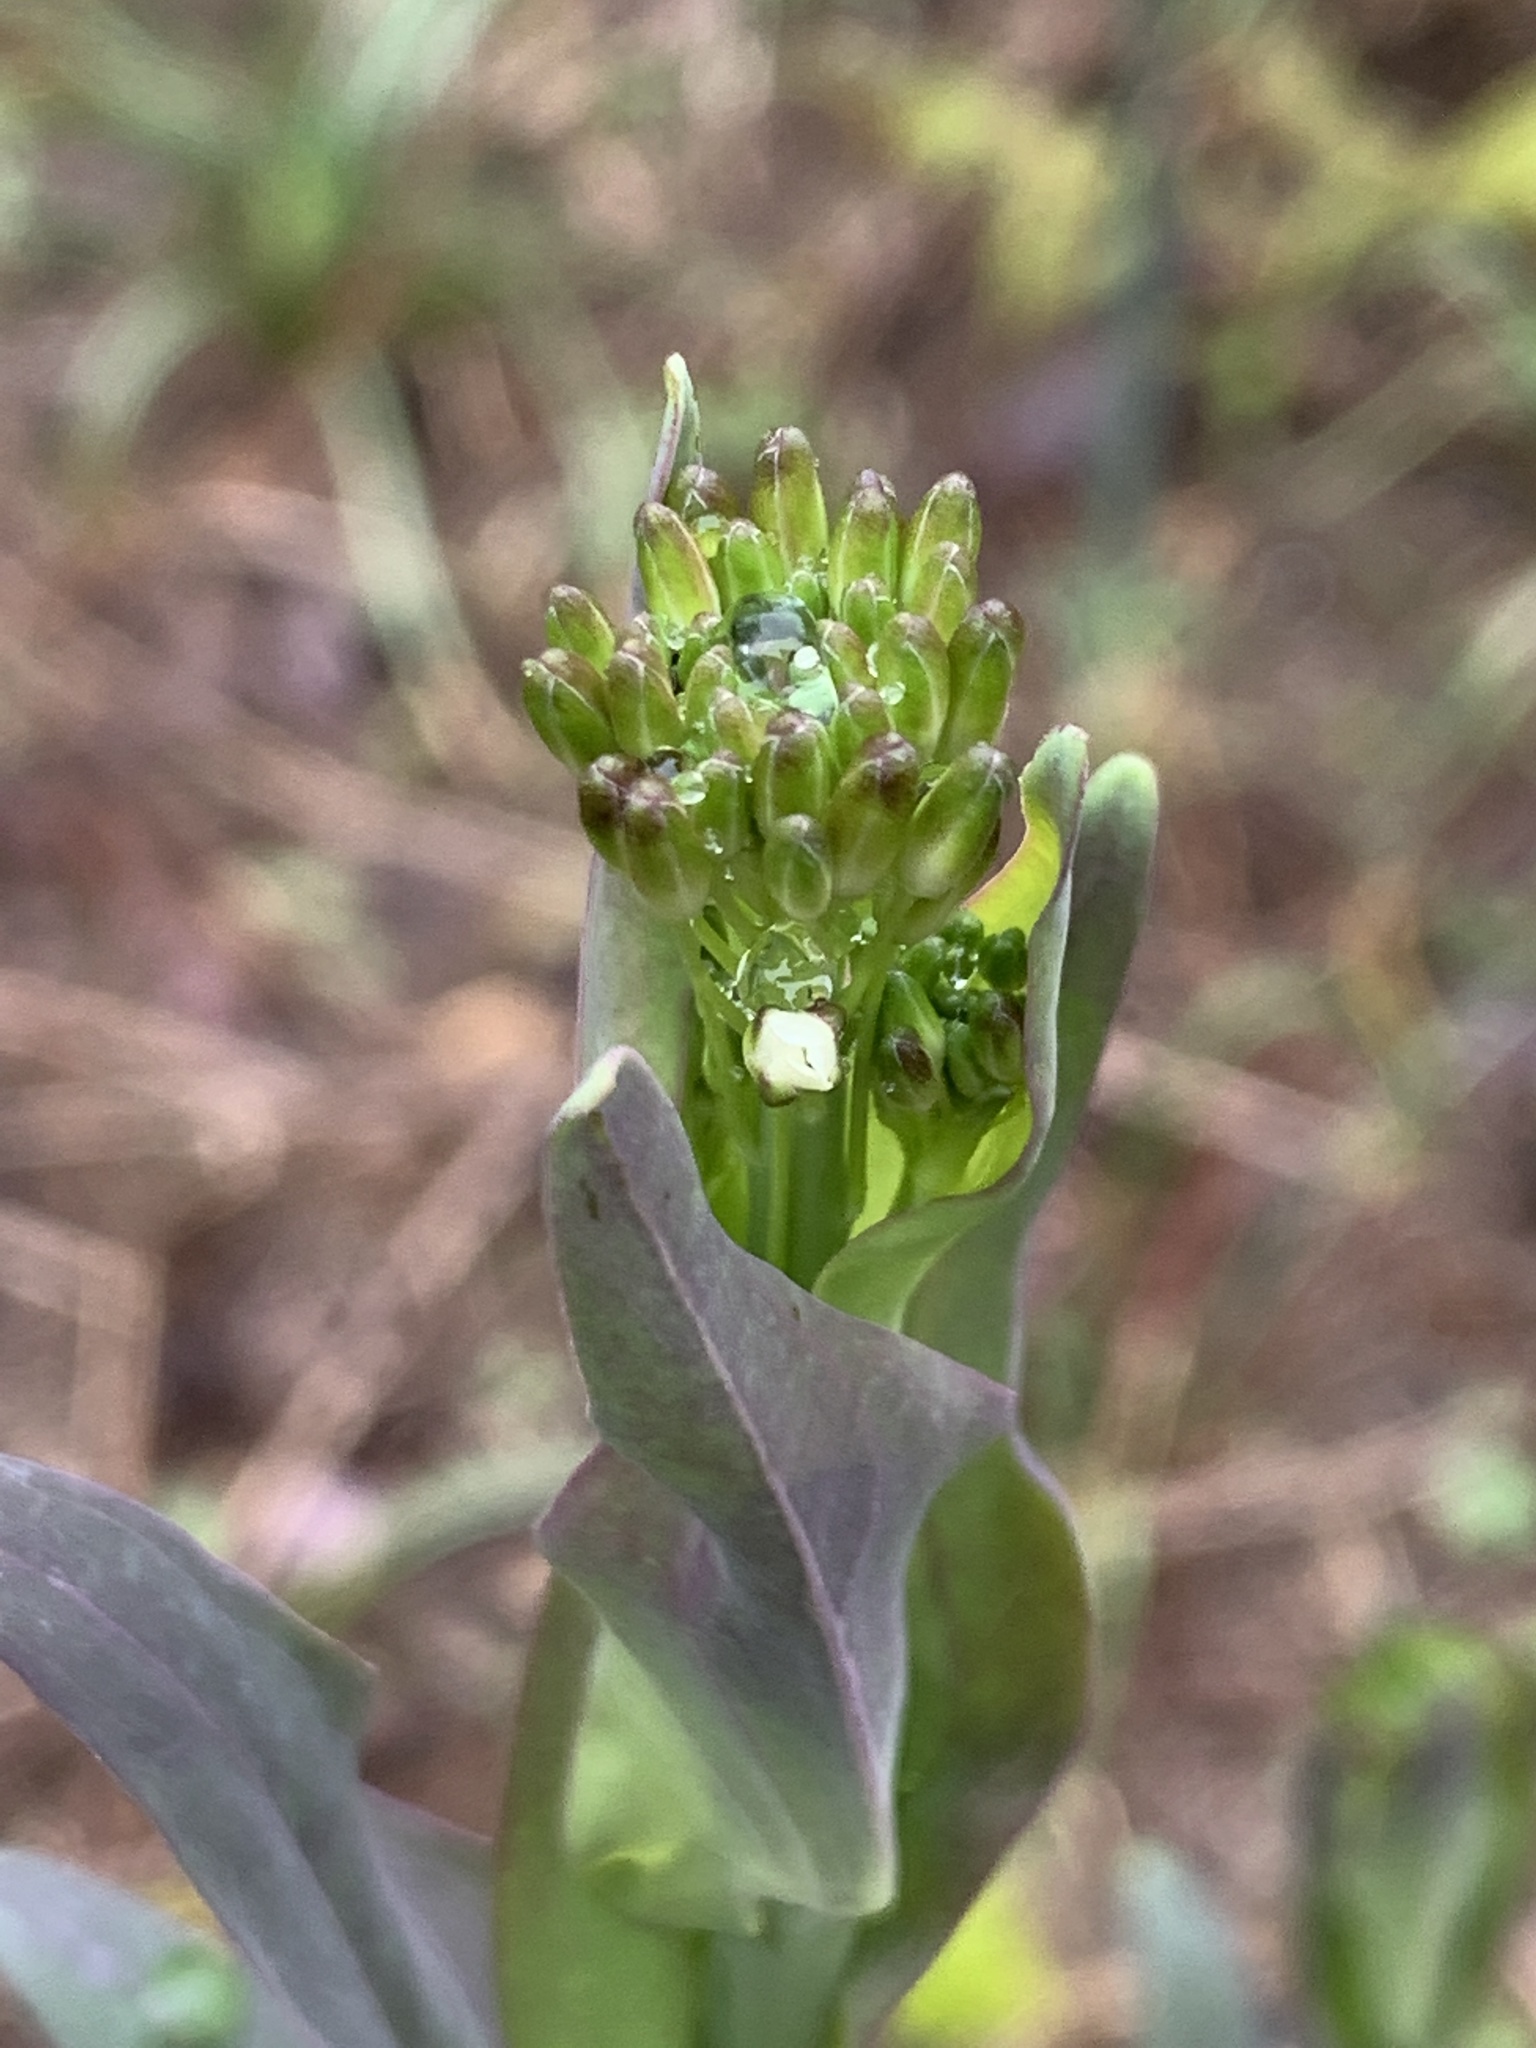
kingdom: Plantae
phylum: Tracheophyta
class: Magnoliopsida
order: Brassicales
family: Brassicaceae
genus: Turritis
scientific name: Turritis glabra
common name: Tower rockcress
